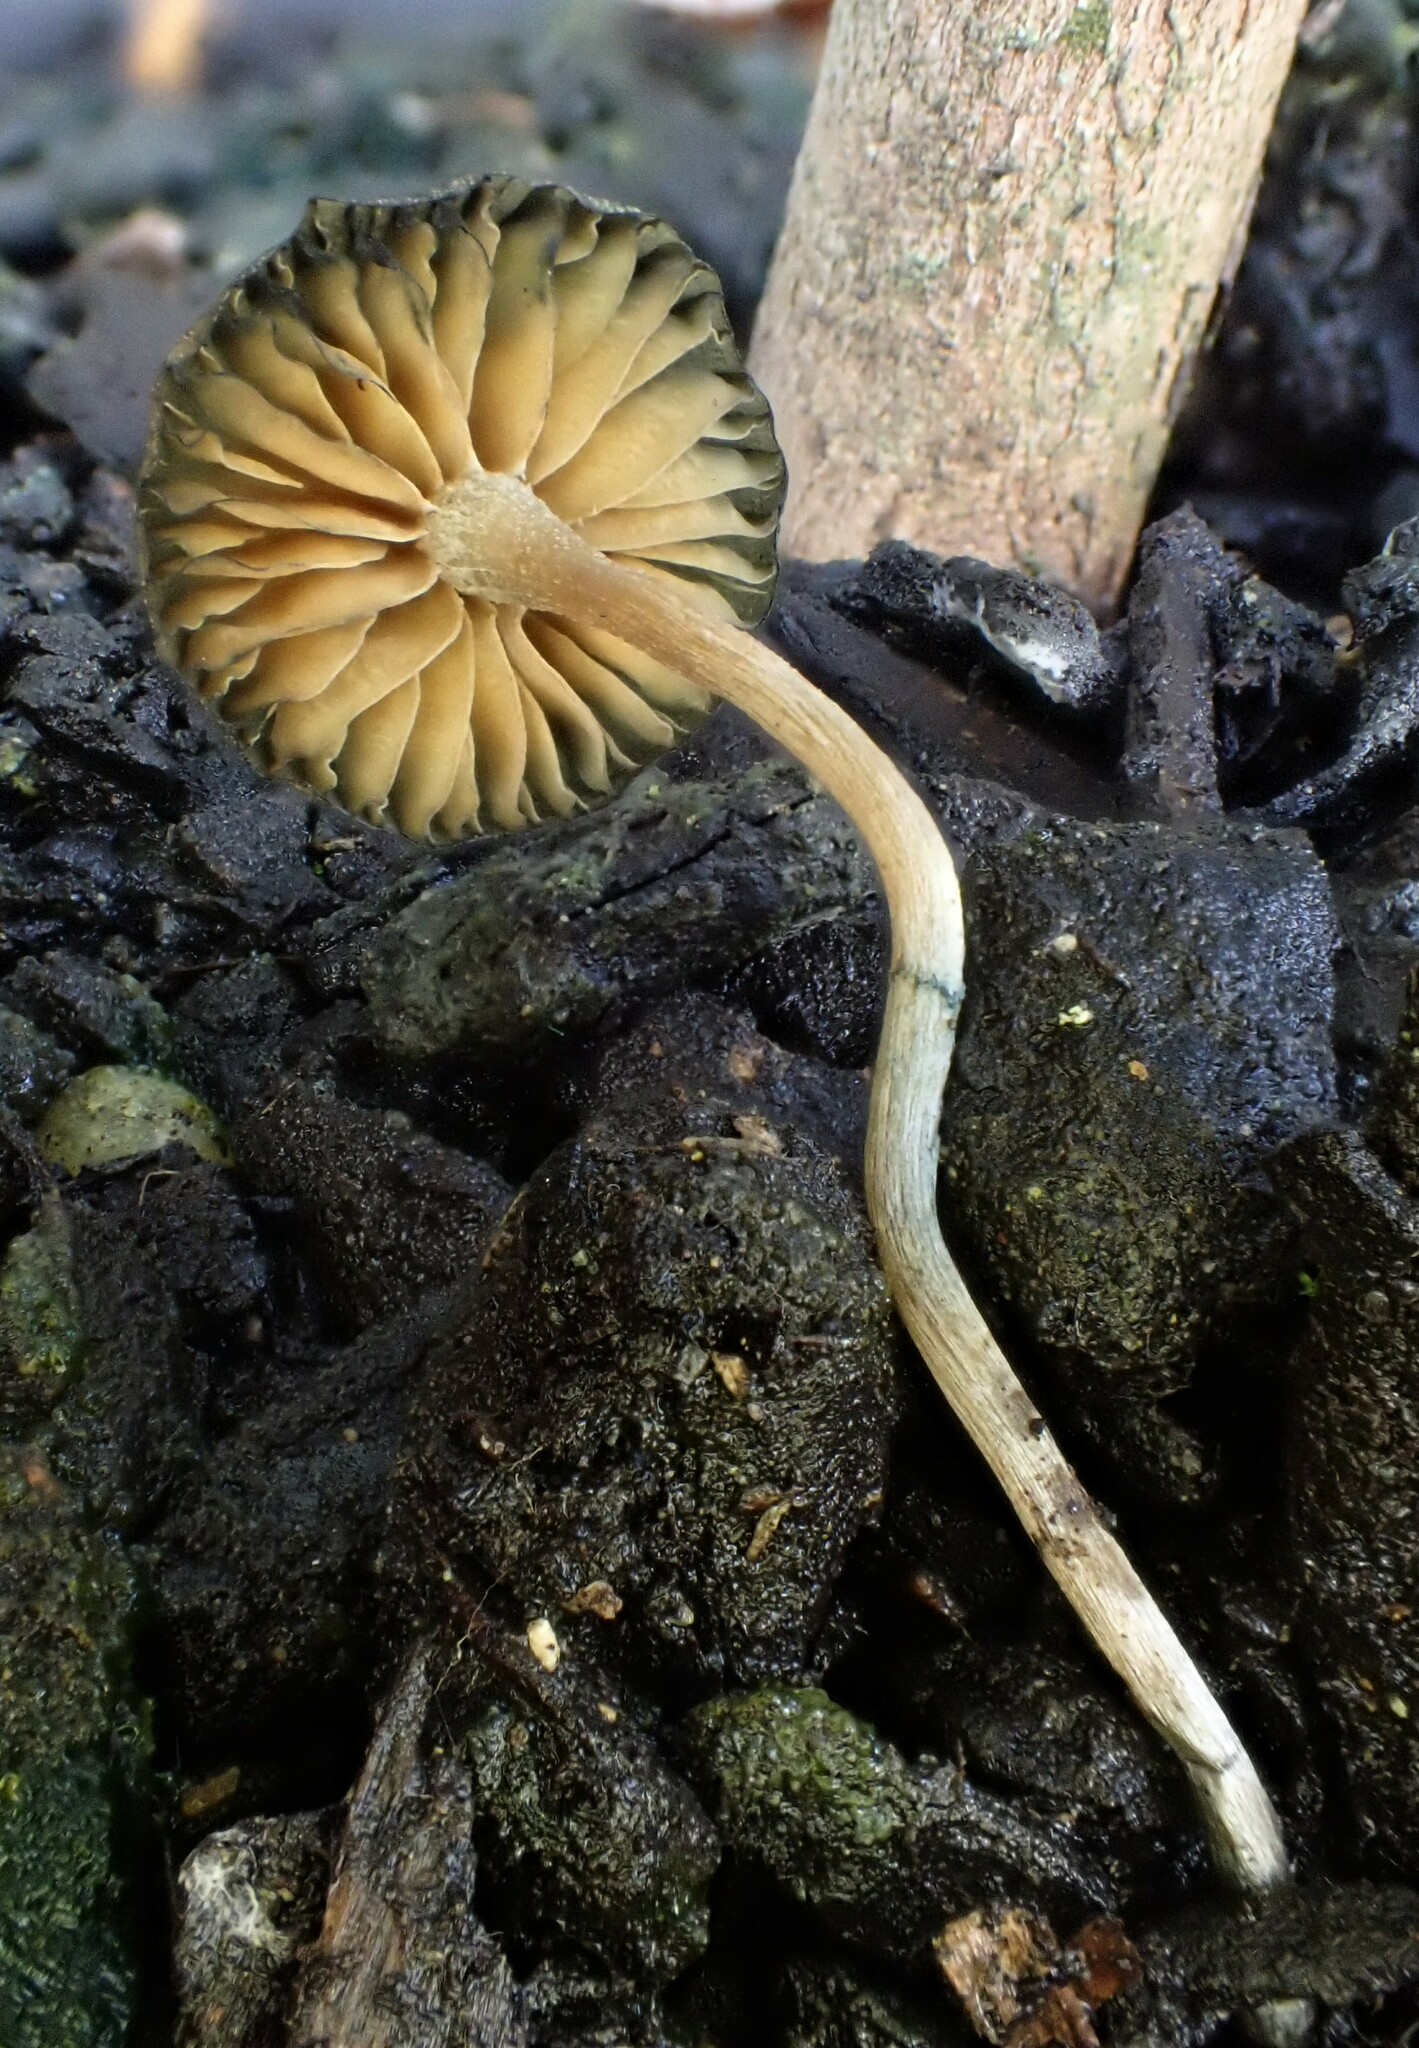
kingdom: Fungi
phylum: Basidiomycota
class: Agaricomycetes
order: Agaricales
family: Hymenogastraceae
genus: Psilocybe
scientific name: Psilocybe angulospora
